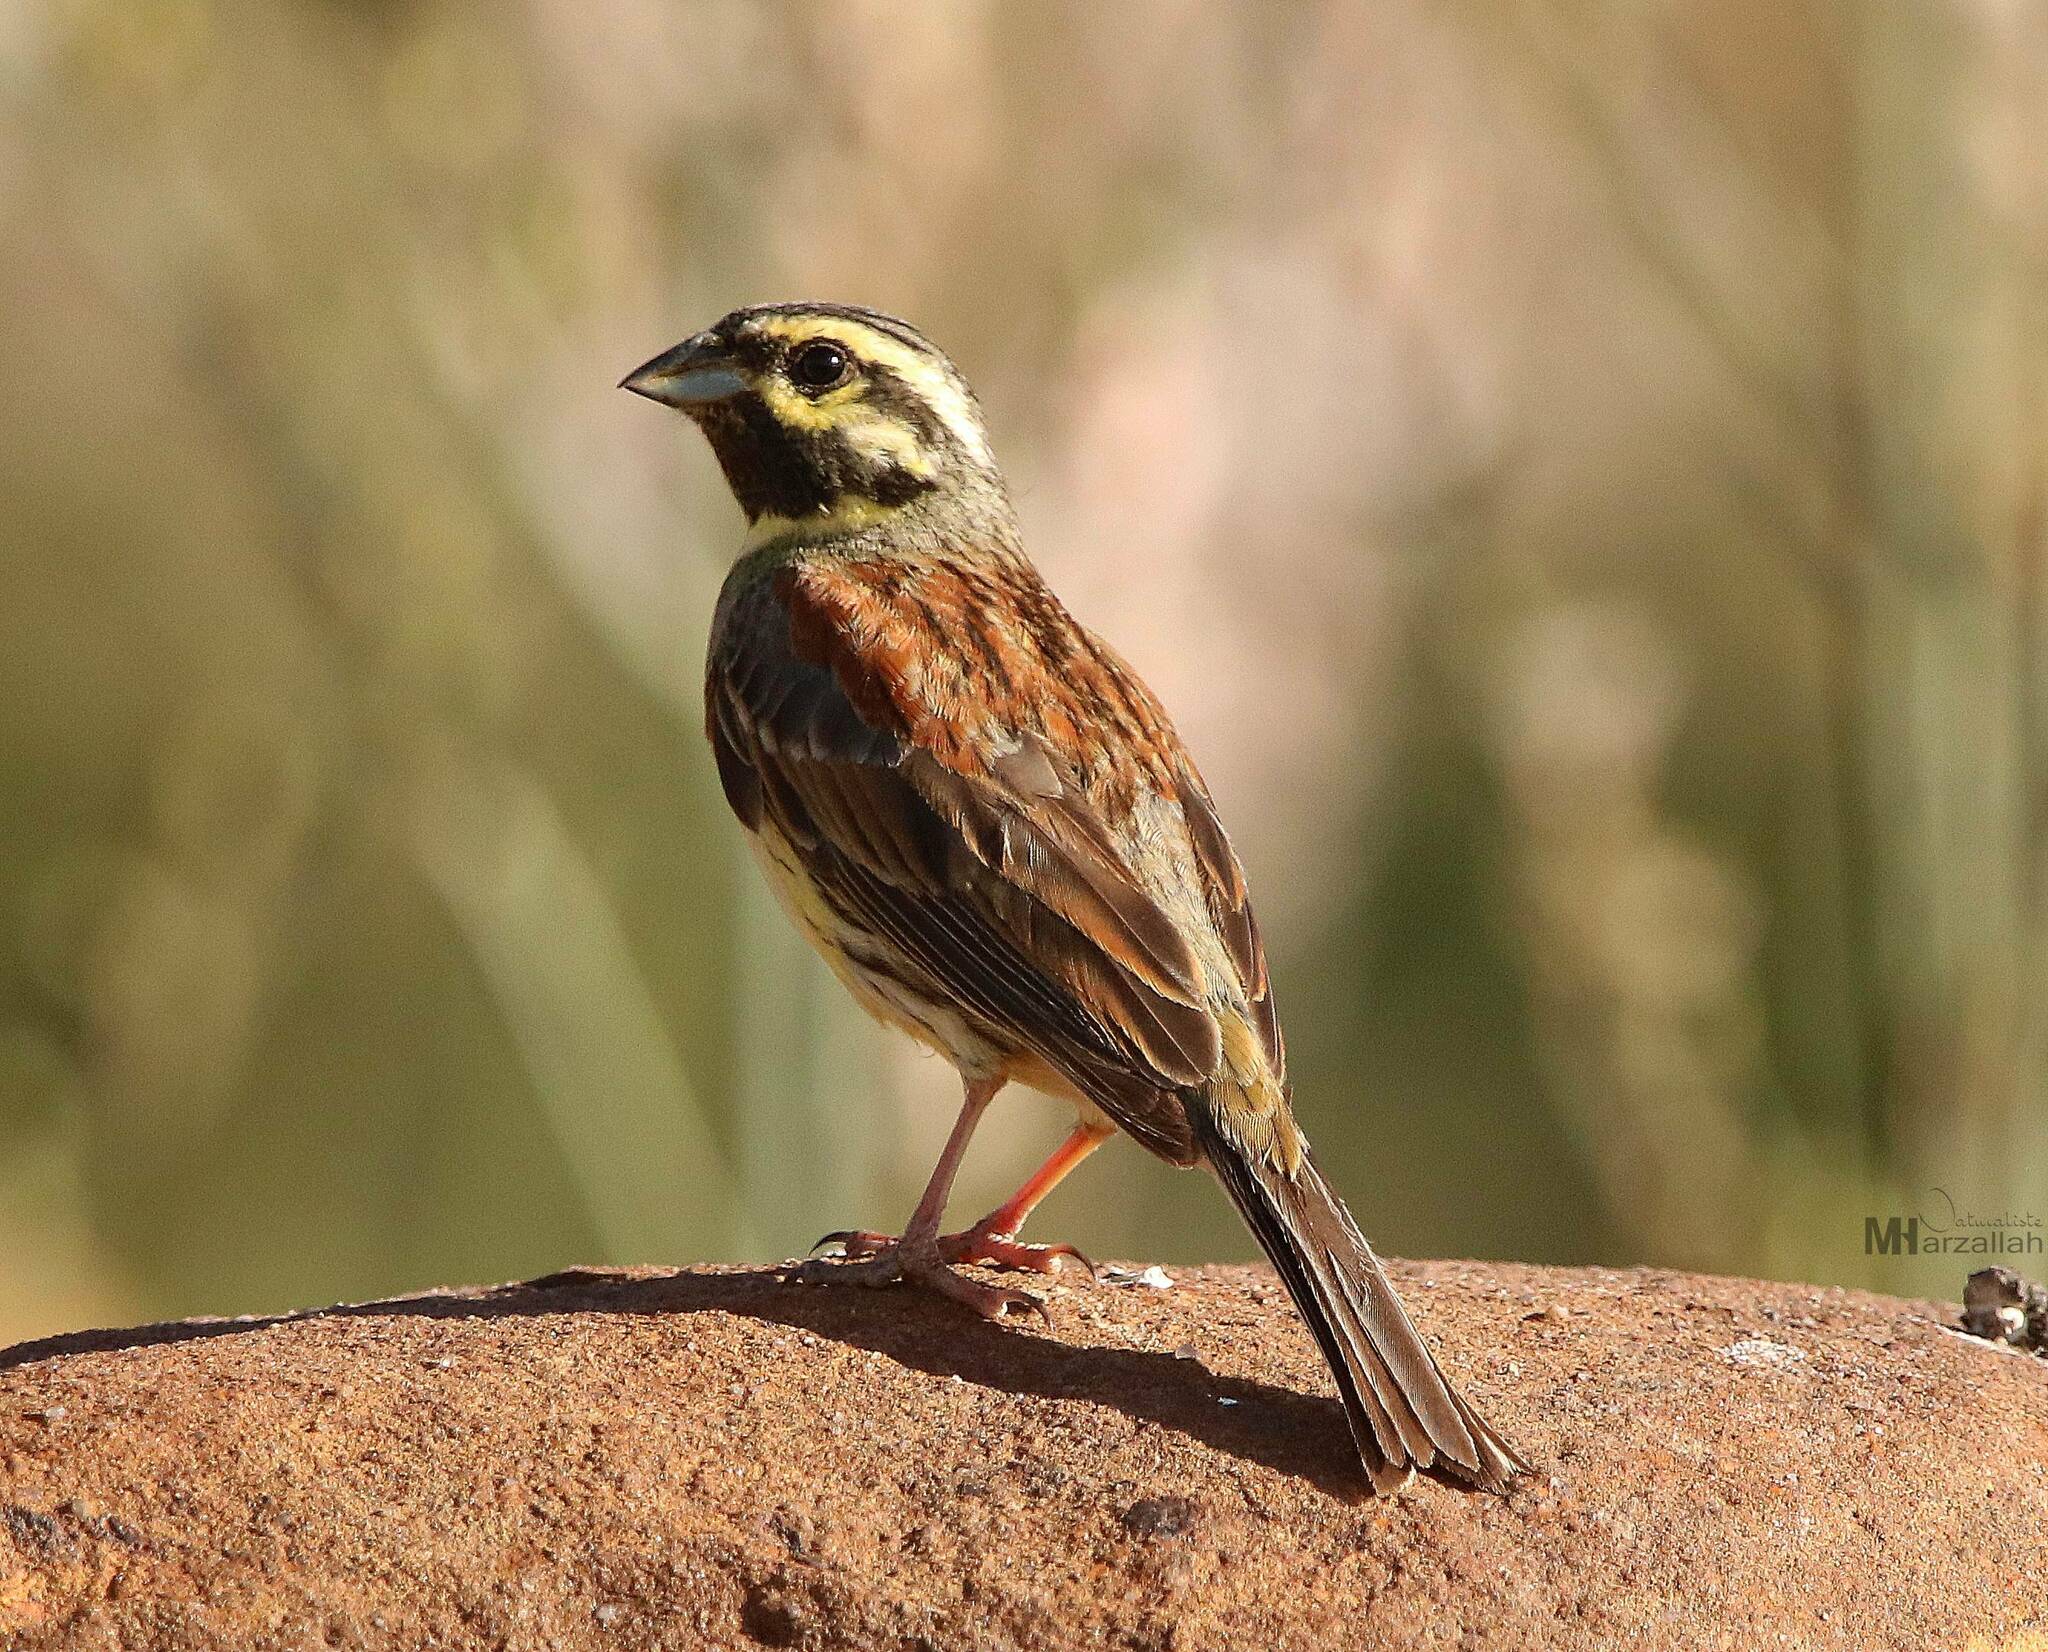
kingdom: Animalia
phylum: Chordata
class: Aves
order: Passeriformes
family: Emberizidae
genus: Emberiza
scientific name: Emberiza cirlus
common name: Cirl bunting
